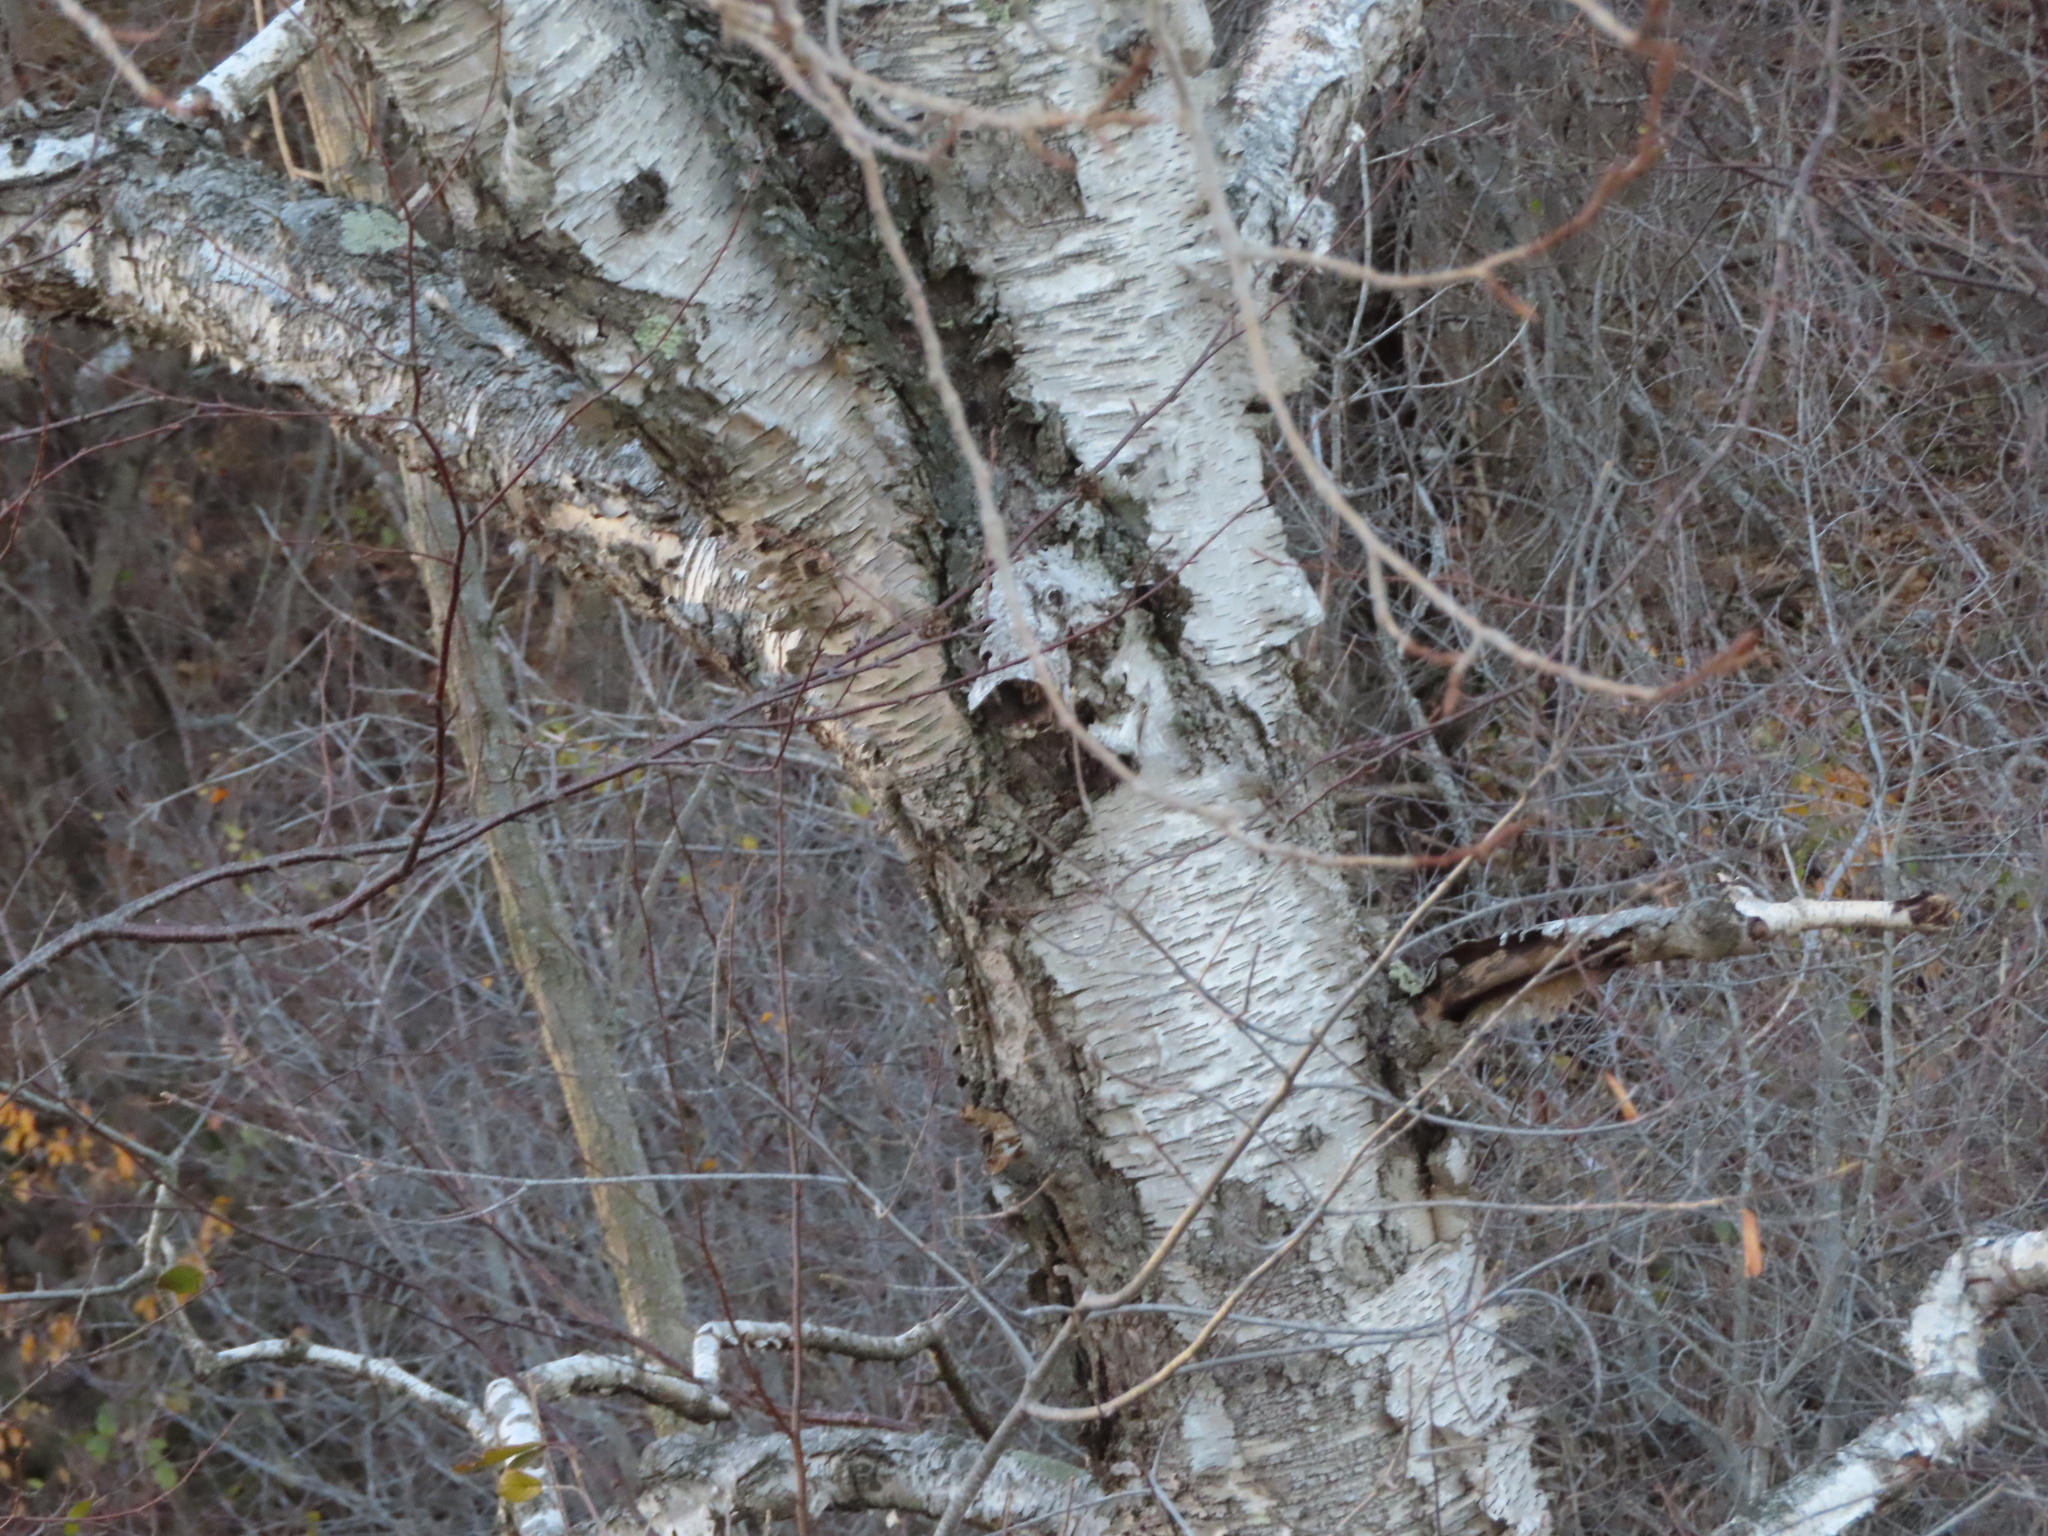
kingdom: Plantae
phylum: Tracheophyta
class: Magnoliopsida
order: Fagales
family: Betulaceae
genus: Betula
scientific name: Betula papyrifera
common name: Paper birch
